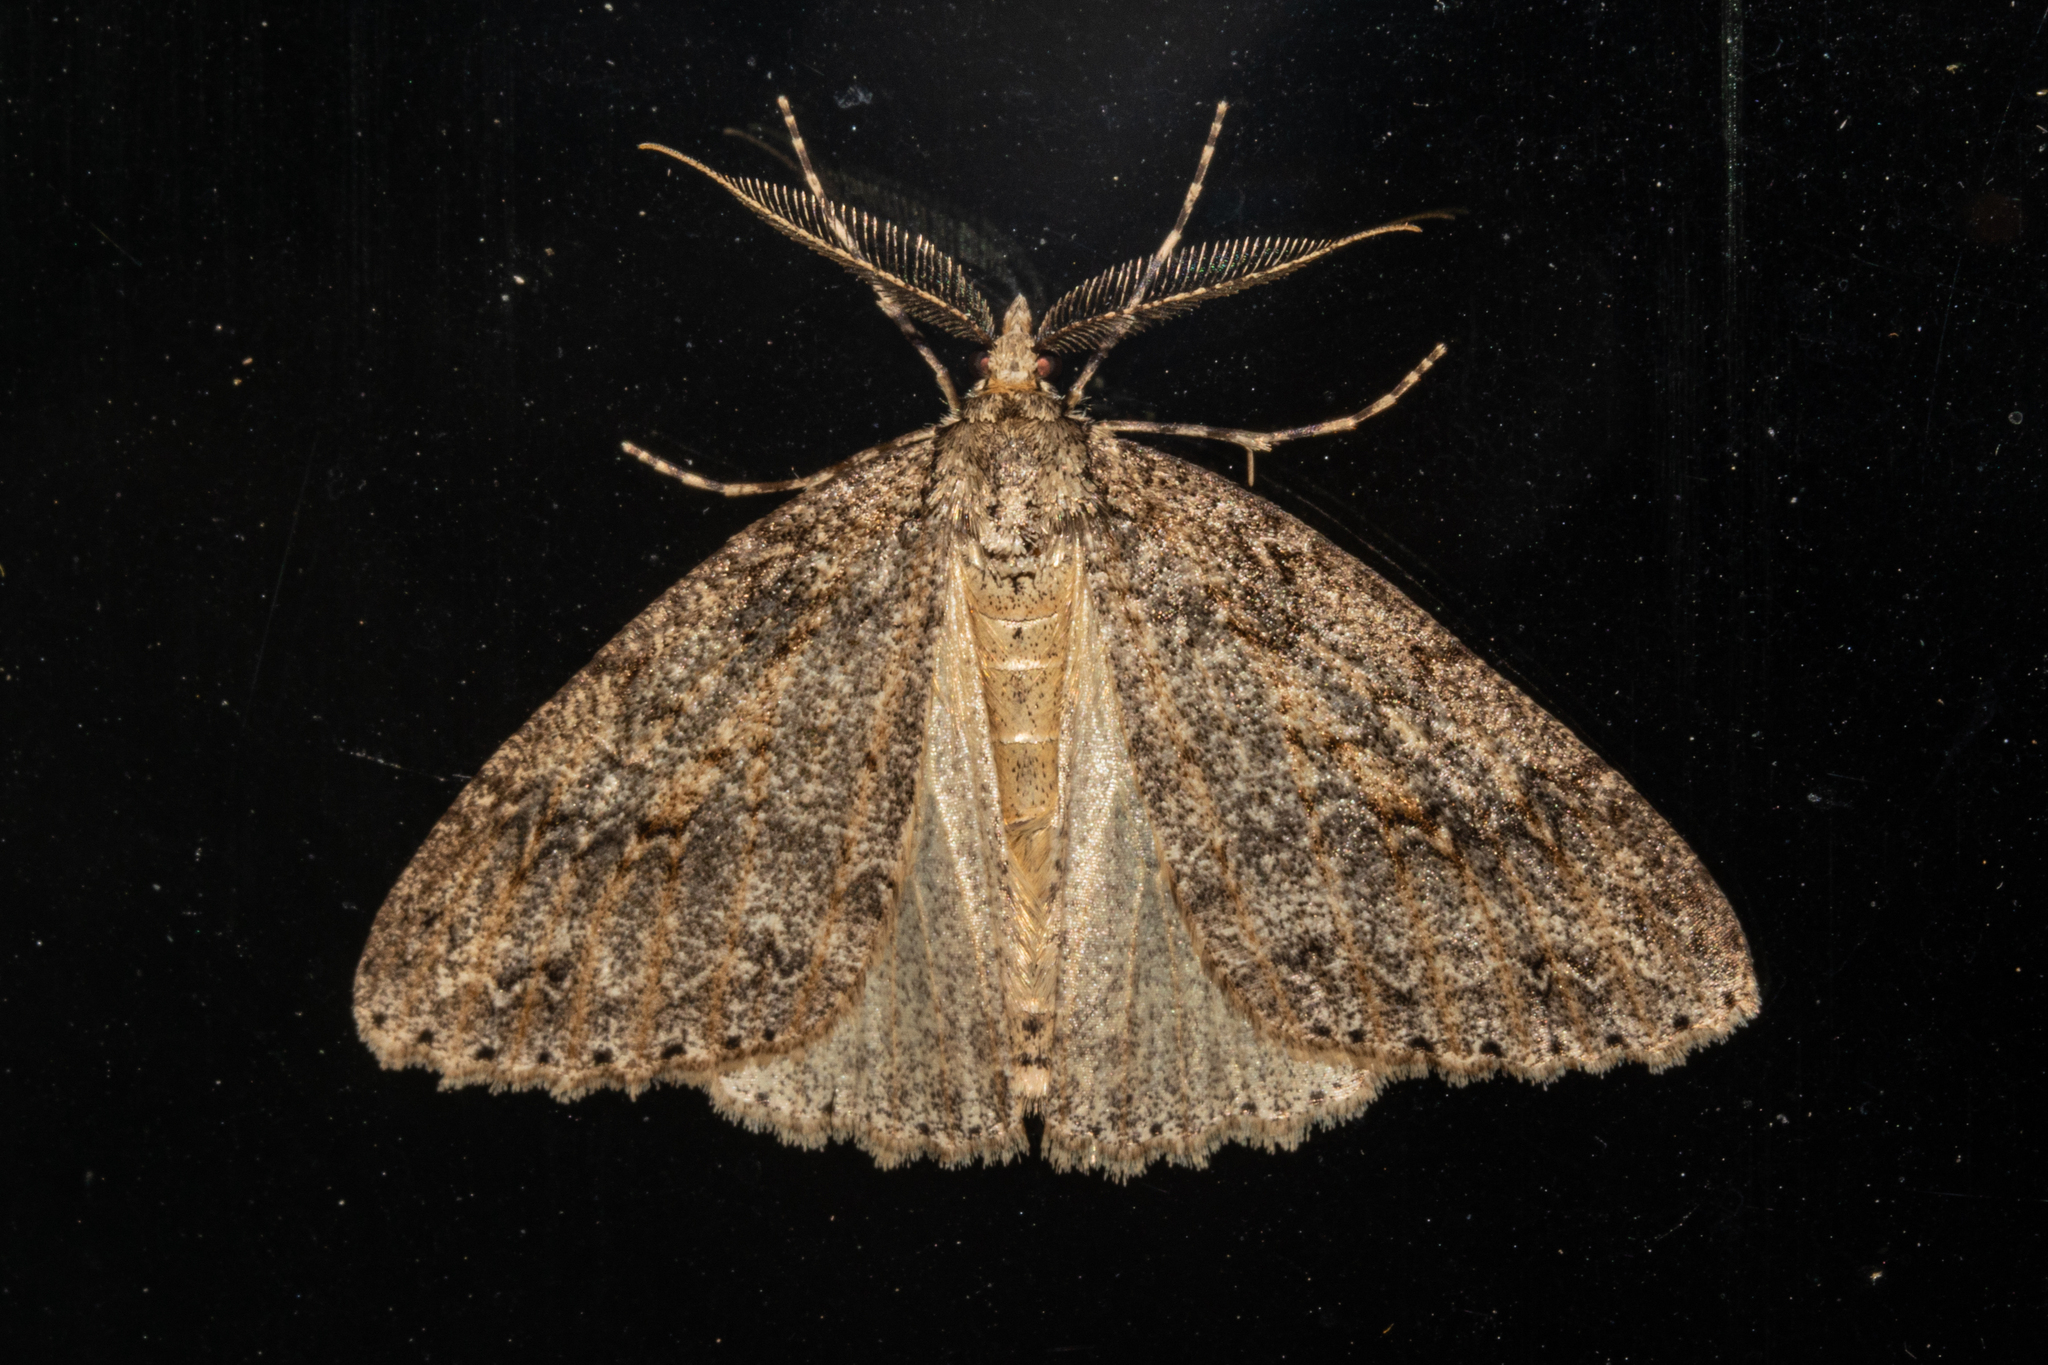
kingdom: Animalia
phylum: Arthropoda
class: Insecta
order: Lepidoptera
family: Geometridae
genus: Pseudocoremia
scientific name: Pseudocoremia rudisata
